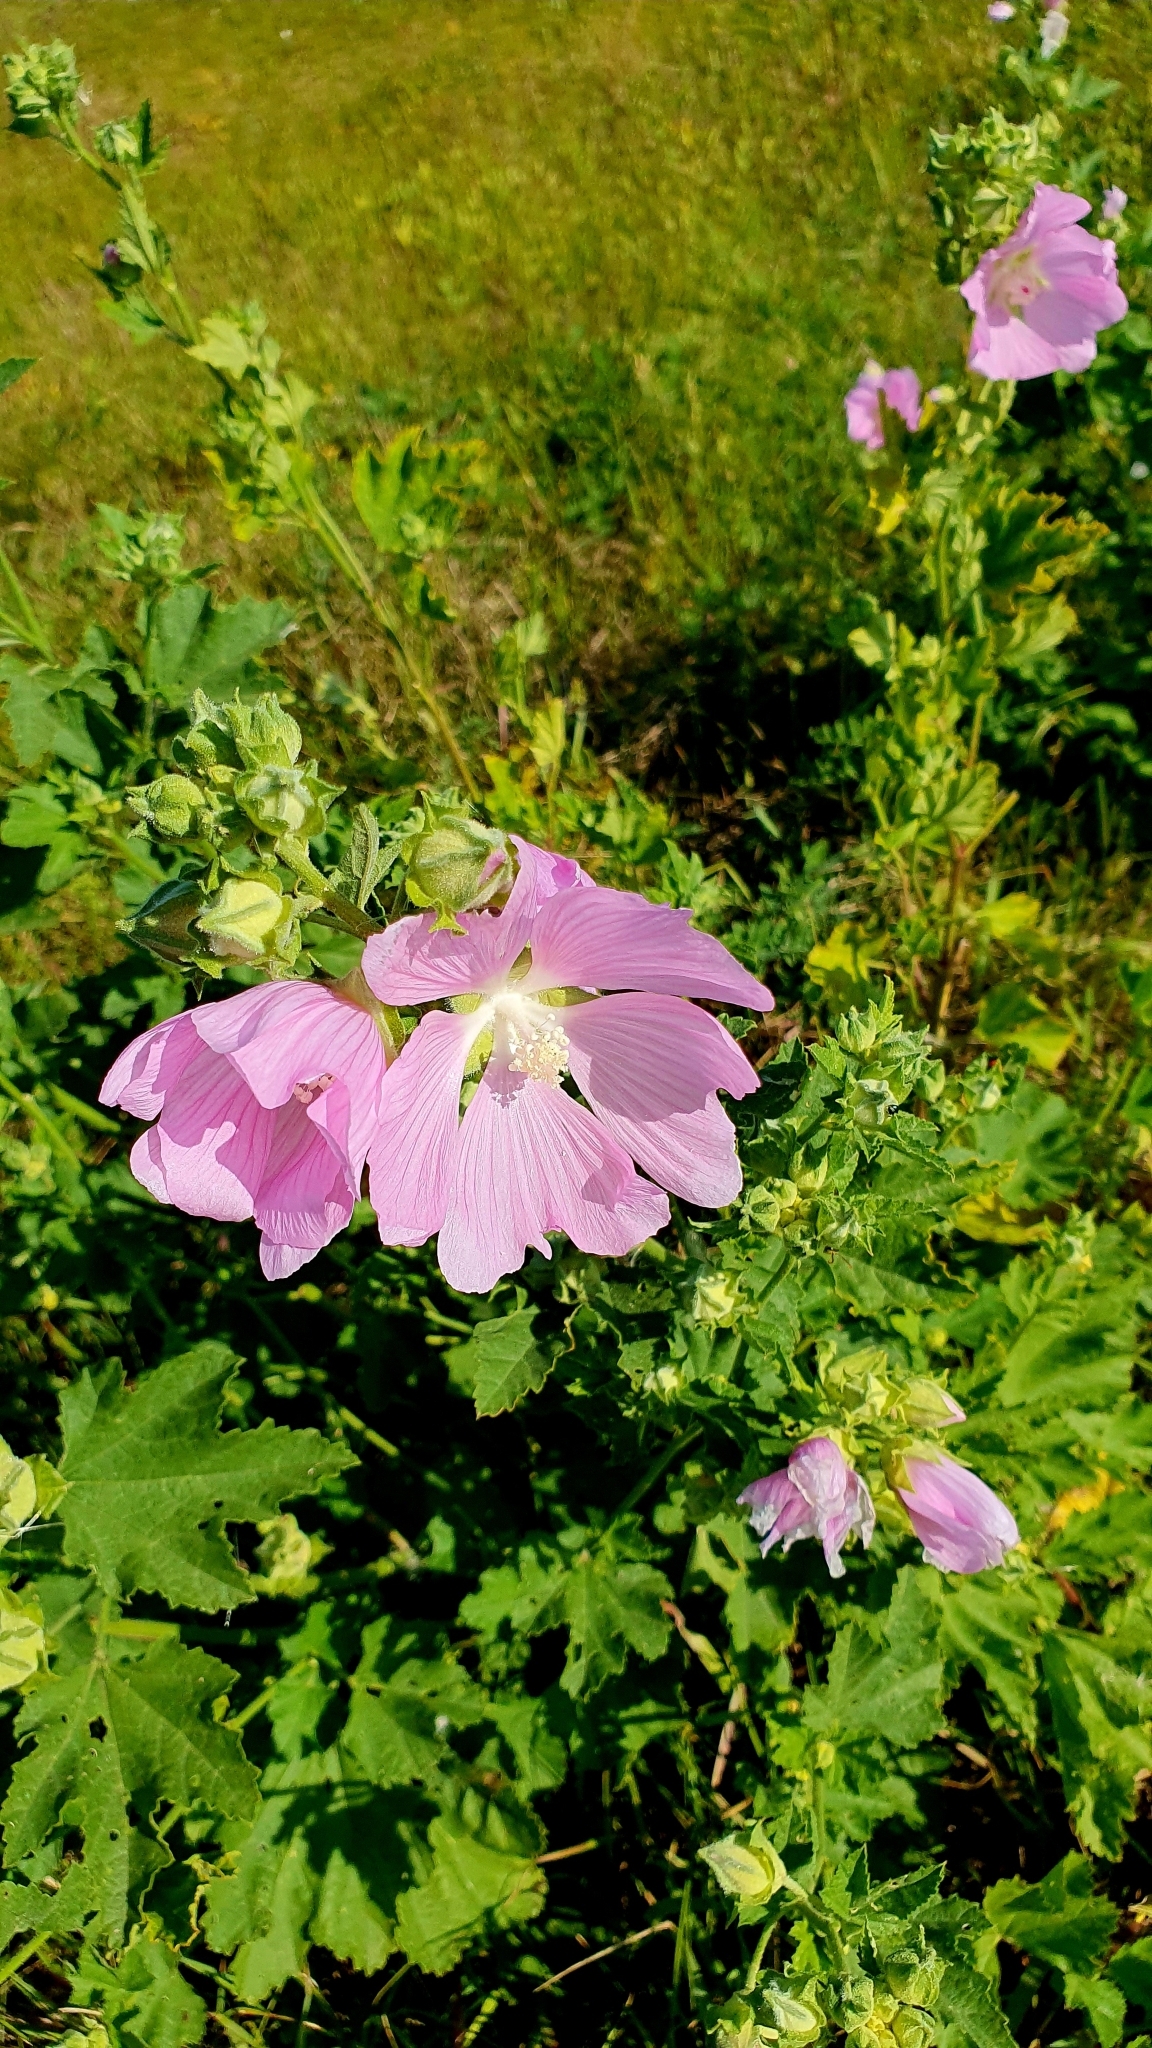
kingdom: Plantae
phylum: Tracheophyta
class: Magnoliopsida
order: Malvales
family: Malvaceae
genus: Malva
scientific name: Malva thuringiaca
